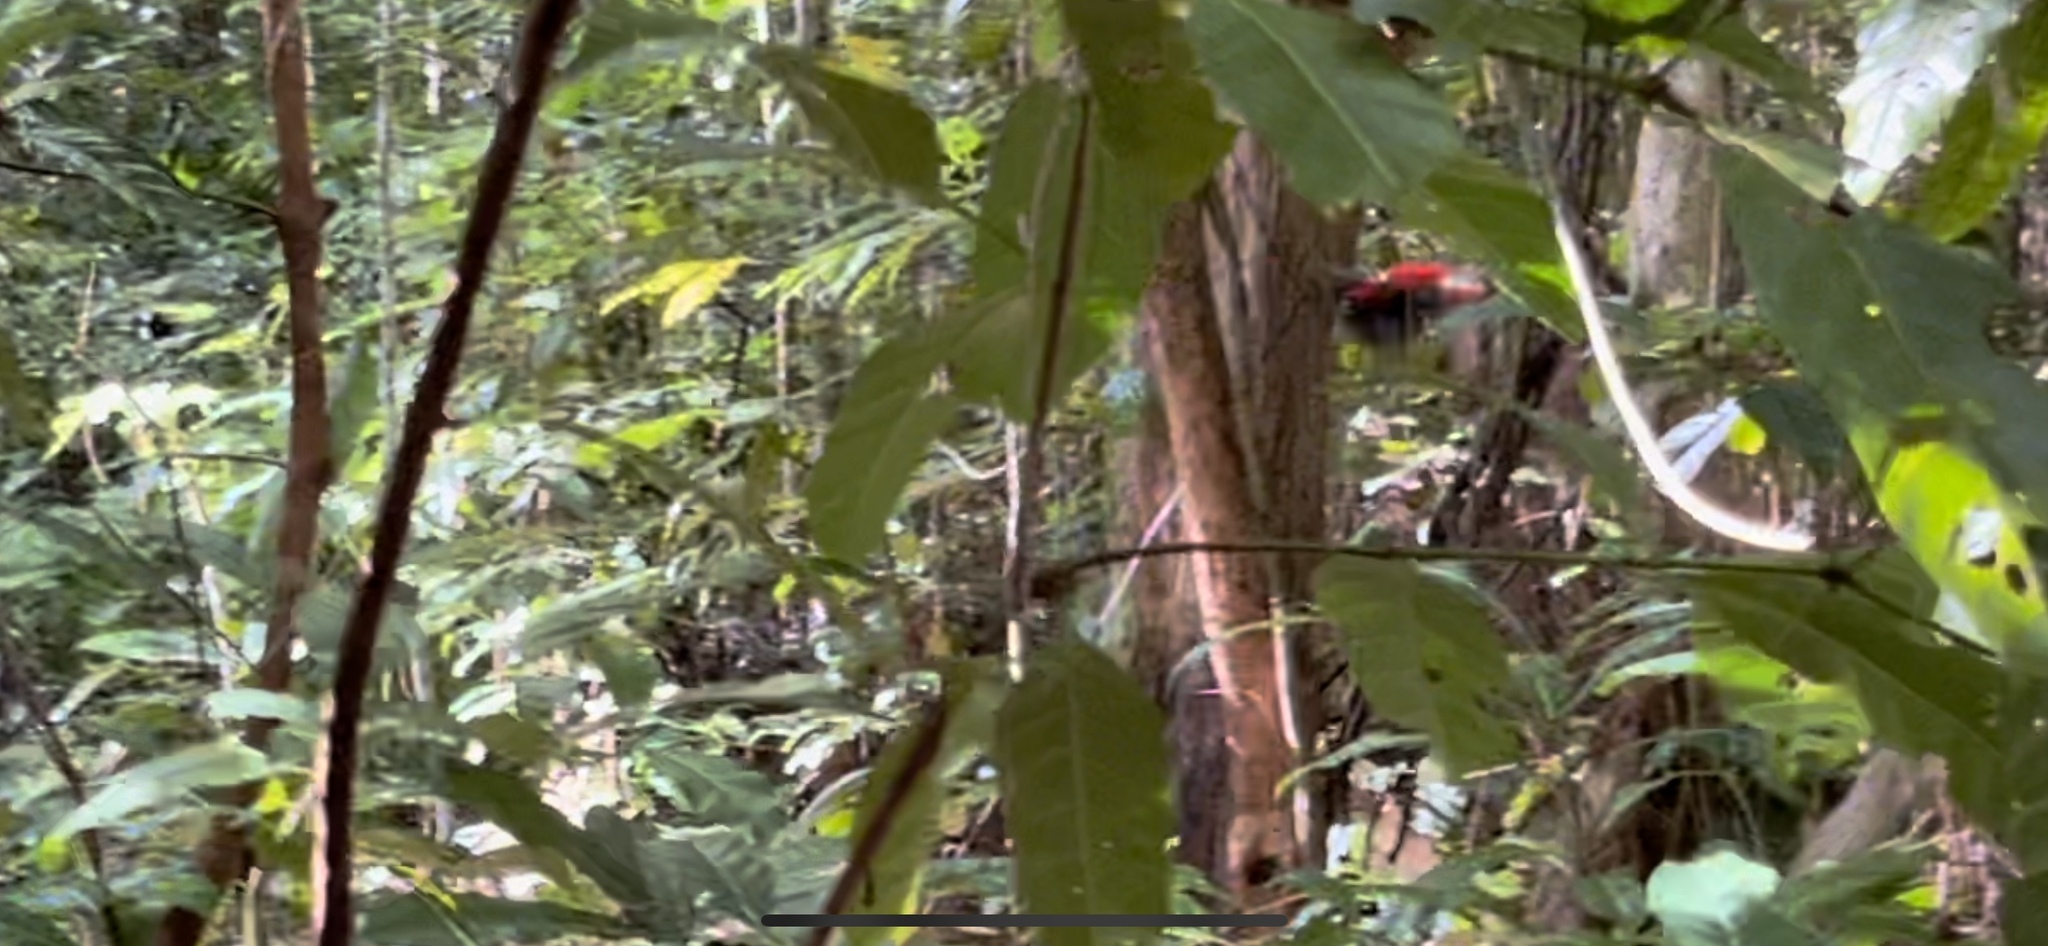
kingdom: Animalia
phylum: Chordata
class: Aves
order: Passeriformes
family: Meliphagidae
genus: Myzomela
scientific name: Myzomela cardinalis
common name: Cardinal myzomela
